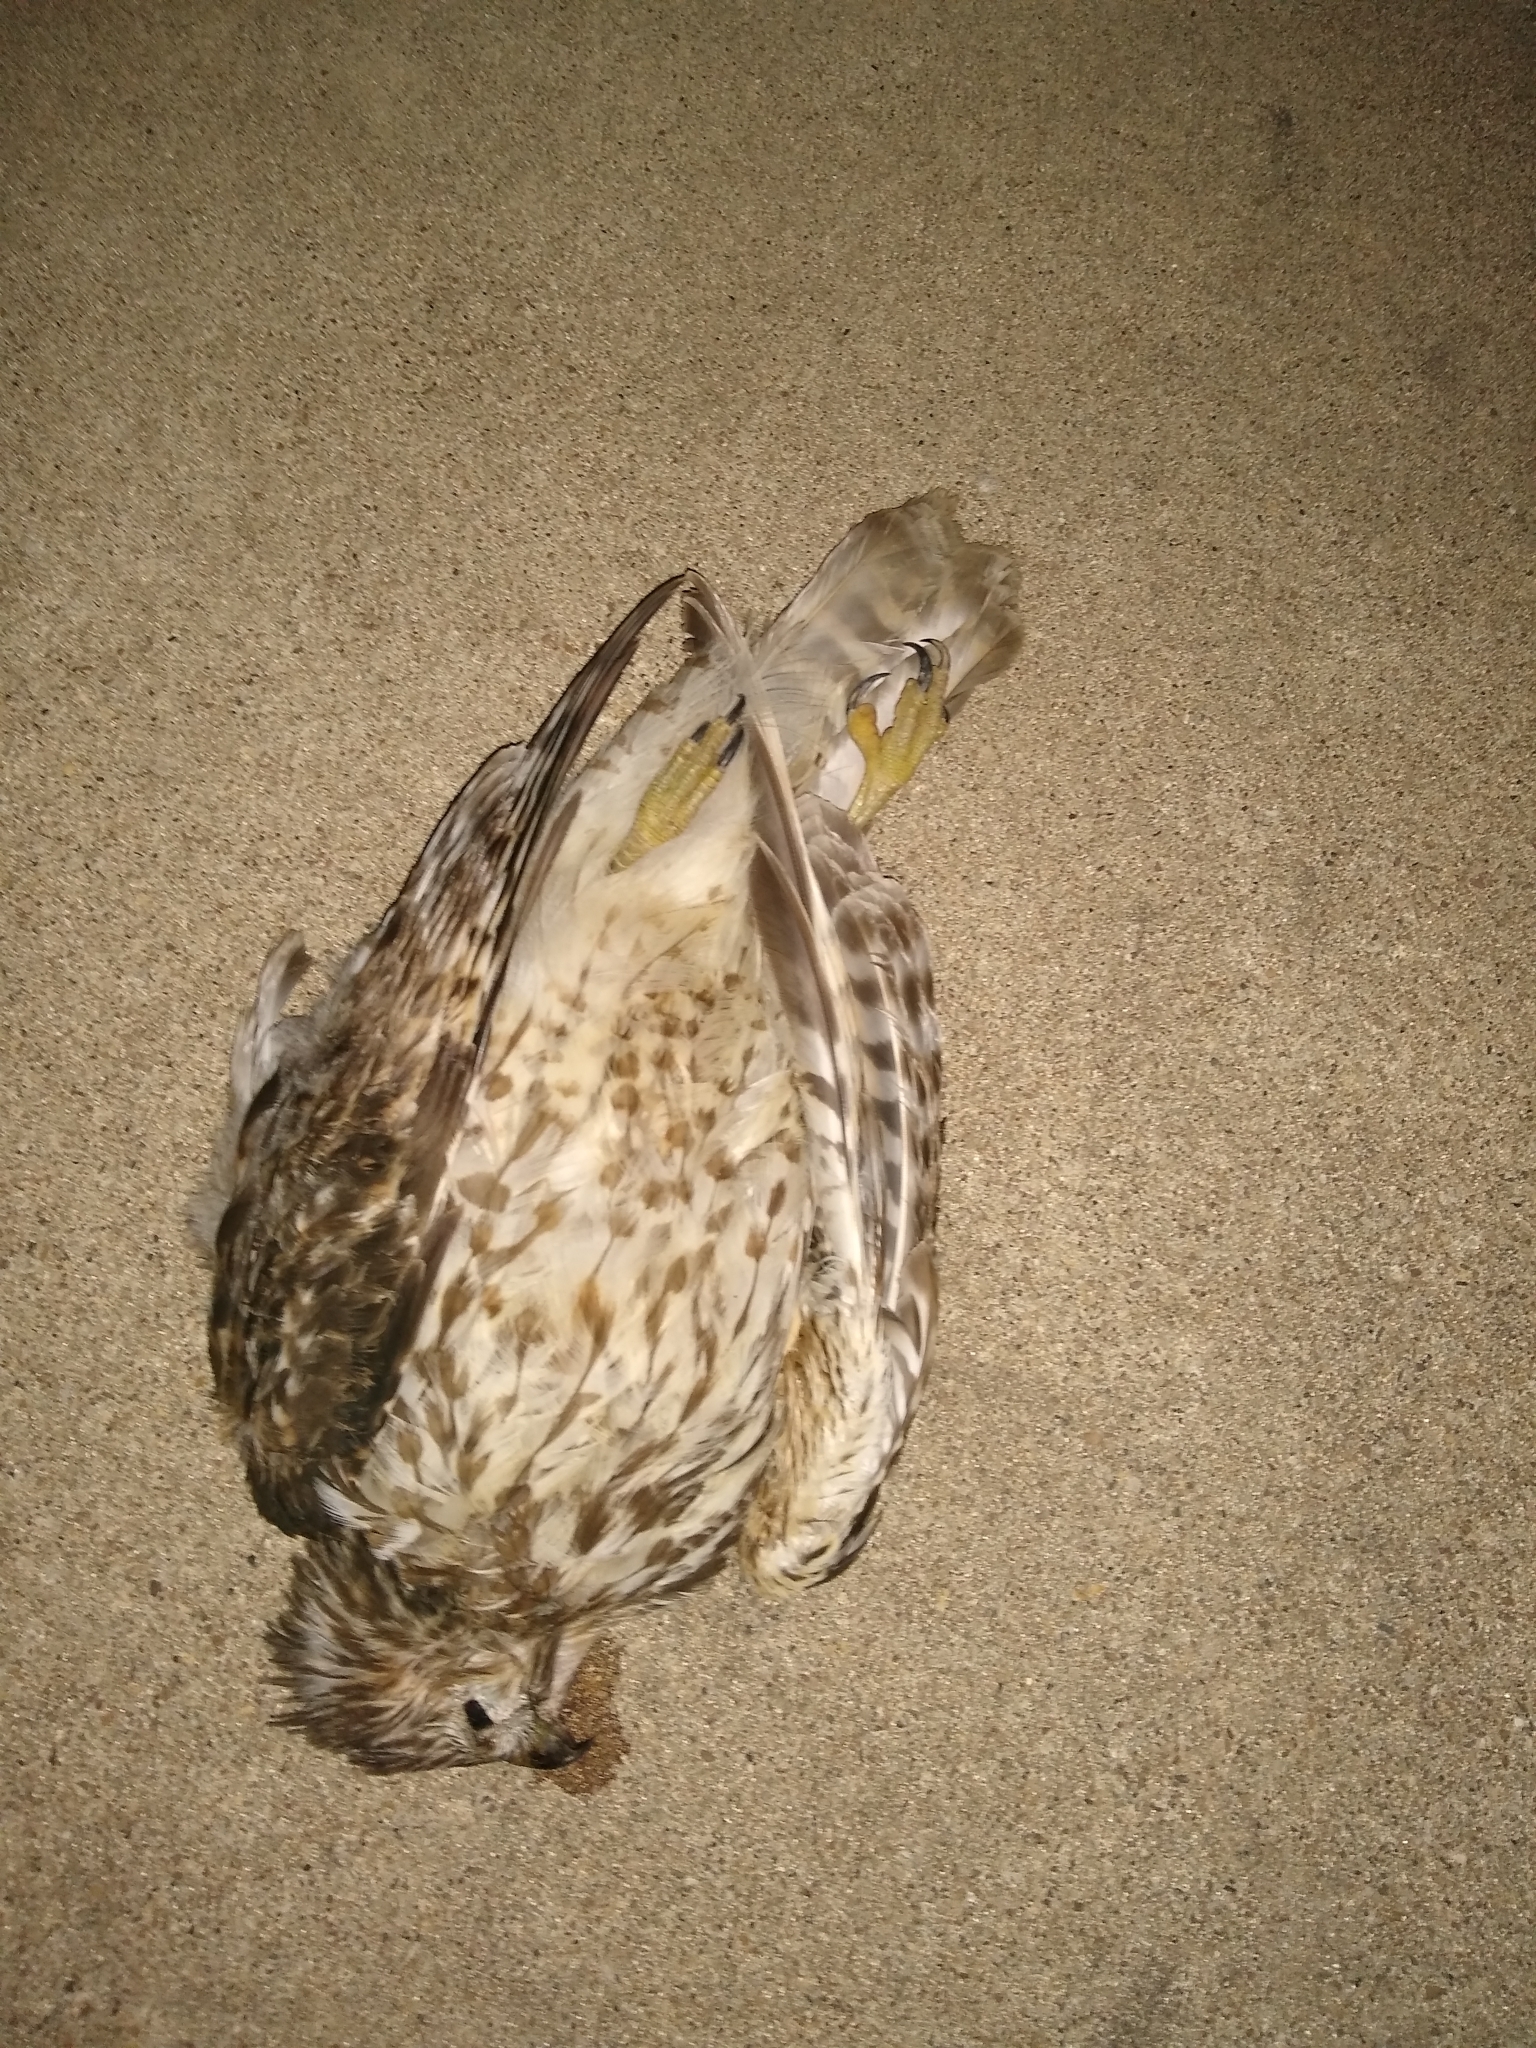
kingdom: Animalia
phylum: Chordata
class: Aves
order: Accipitriformes
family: Accipitridae
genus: Buteo
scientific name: Buteo lineatus
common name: Red-shouldered hawk
